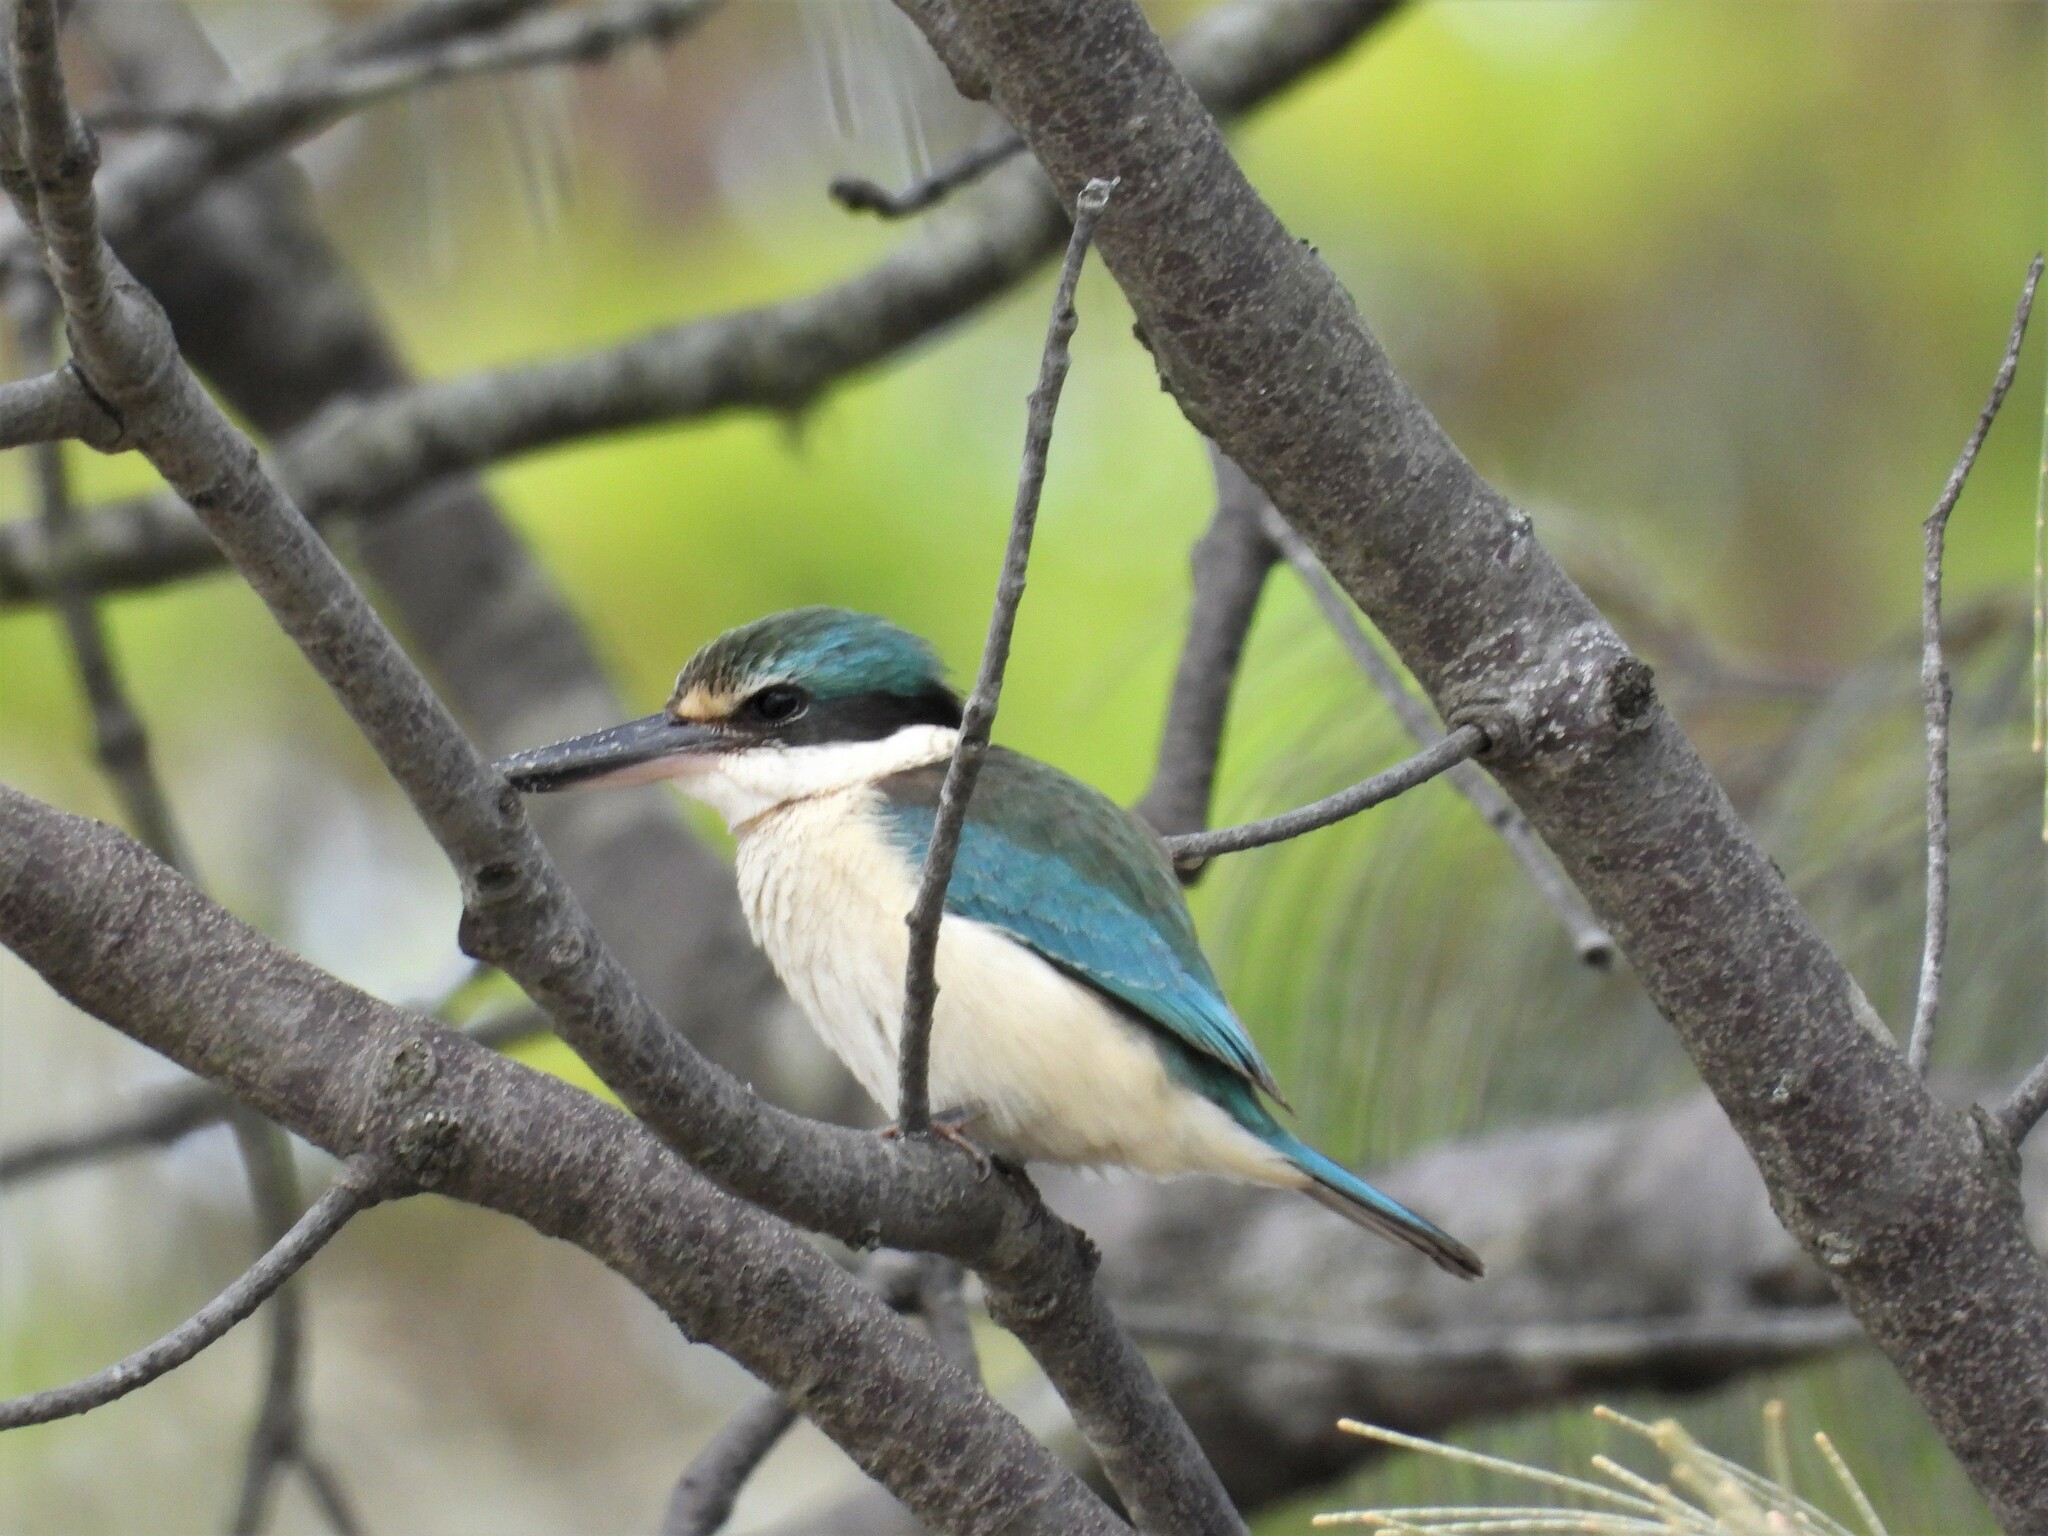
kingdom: Animalia
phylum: Chordata
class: Aves
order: Coraciiformes
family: Alcedinidae
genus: Todiramphus
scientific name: Todiramphus sanctus
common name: Sacred kingfisher
